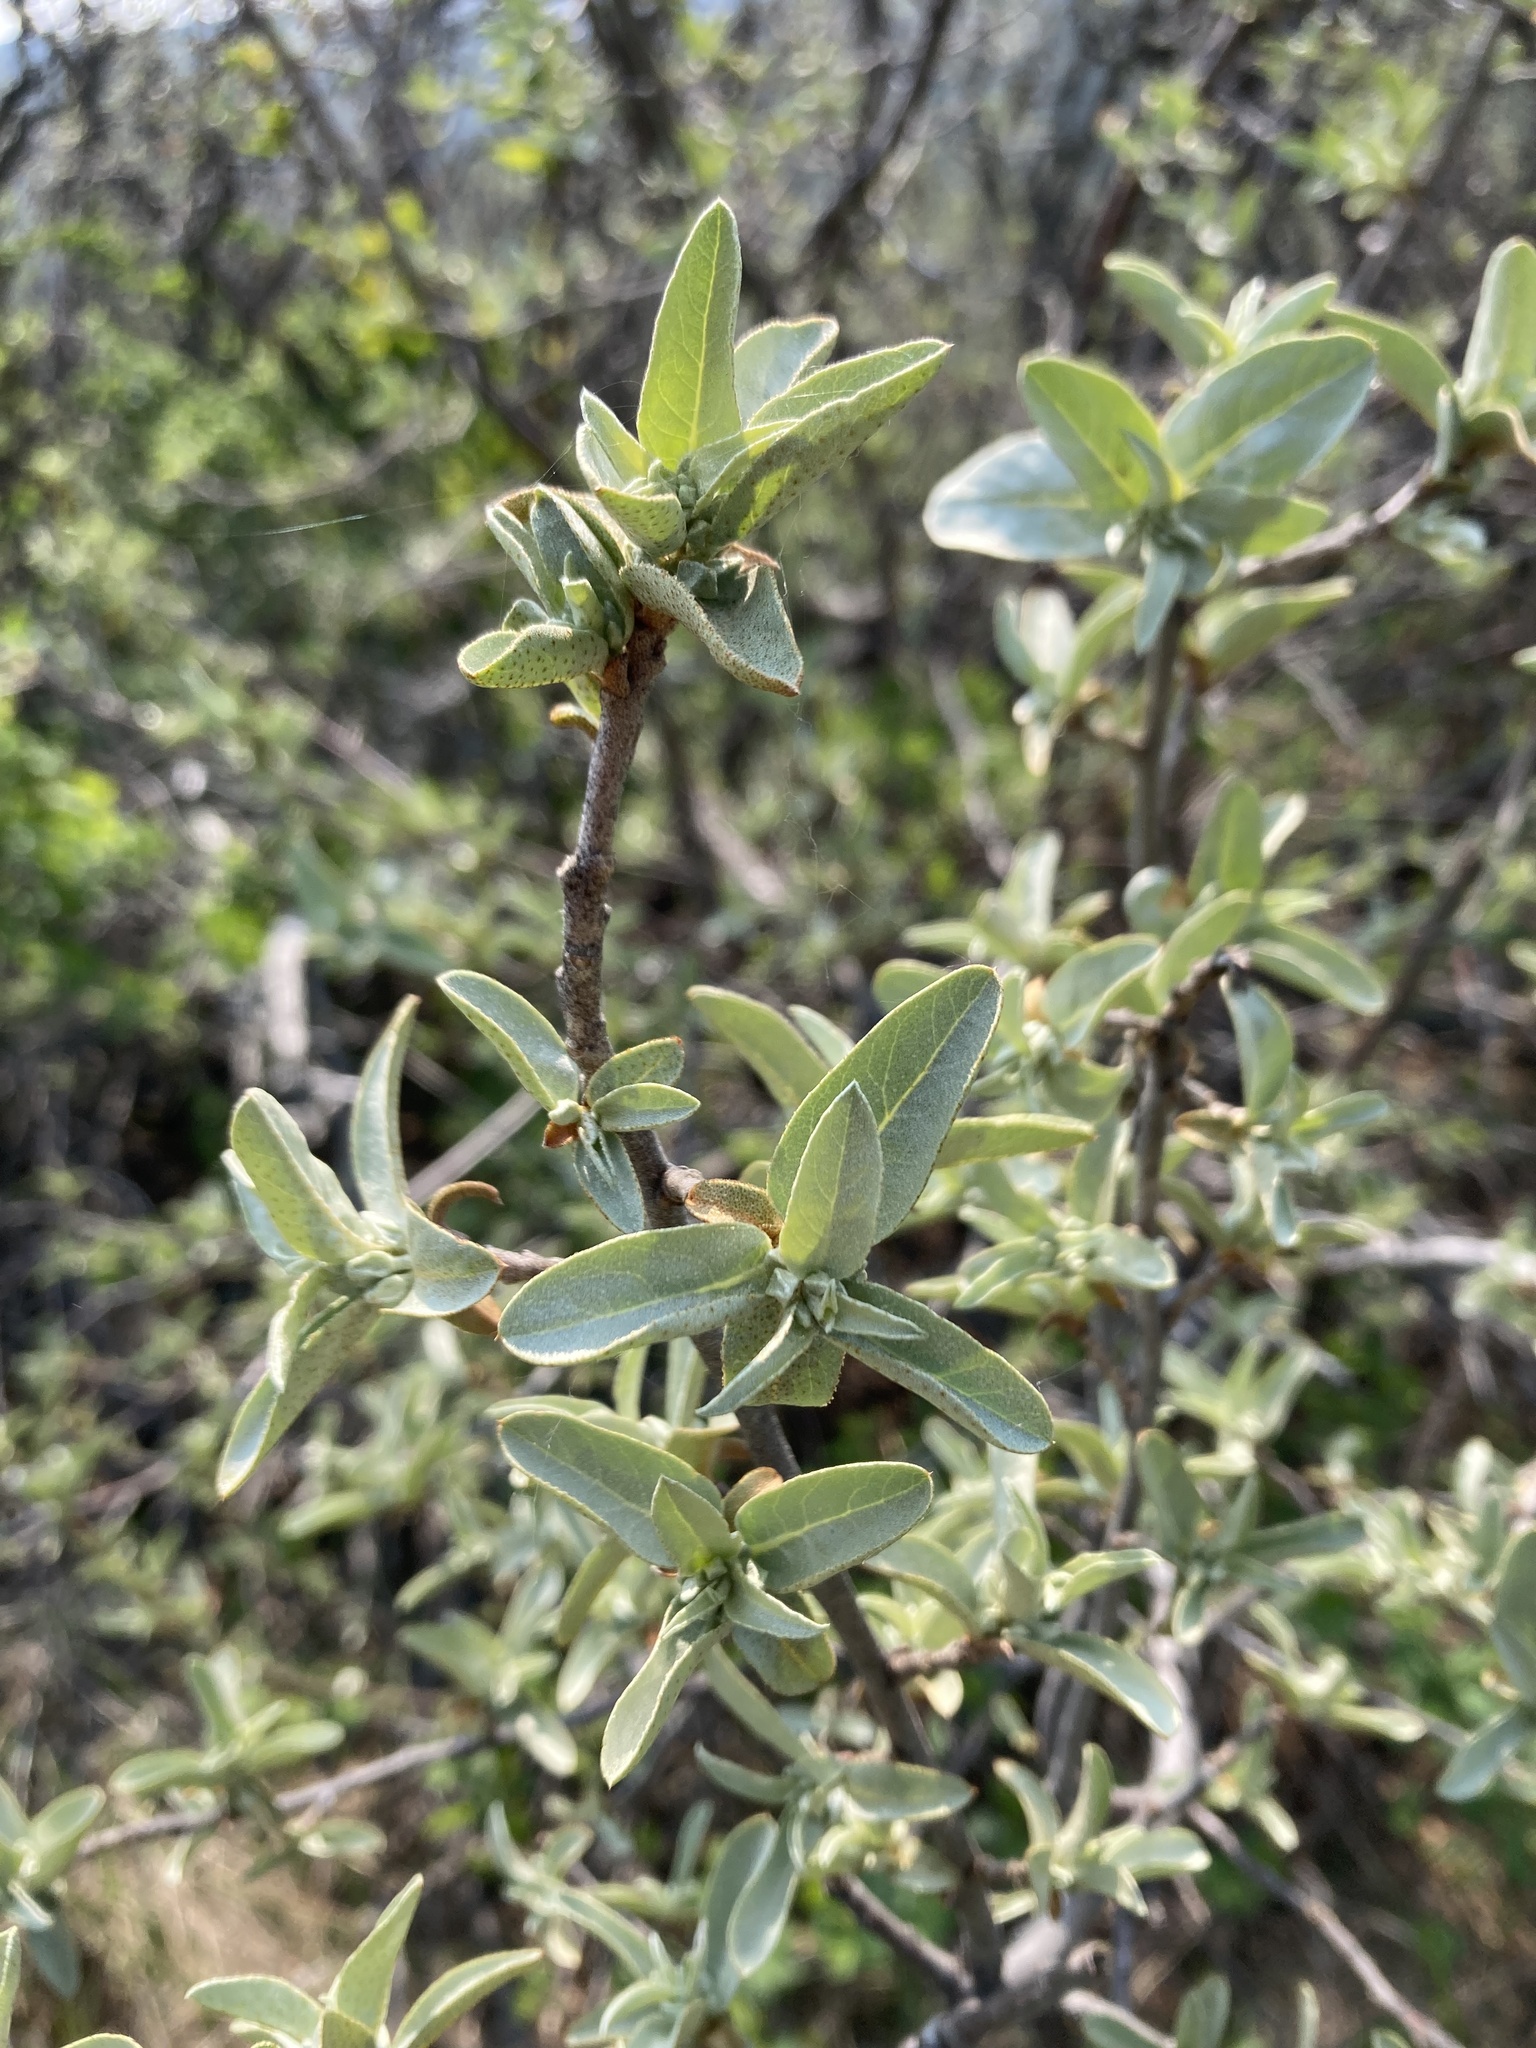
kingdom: Plantae
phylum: Tracheophyta
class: Magnoliopsida
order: Rosales
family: Elaeagnaceae
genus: Elaeagnus
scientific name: Elaeagnus commutata
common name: Silverberry
